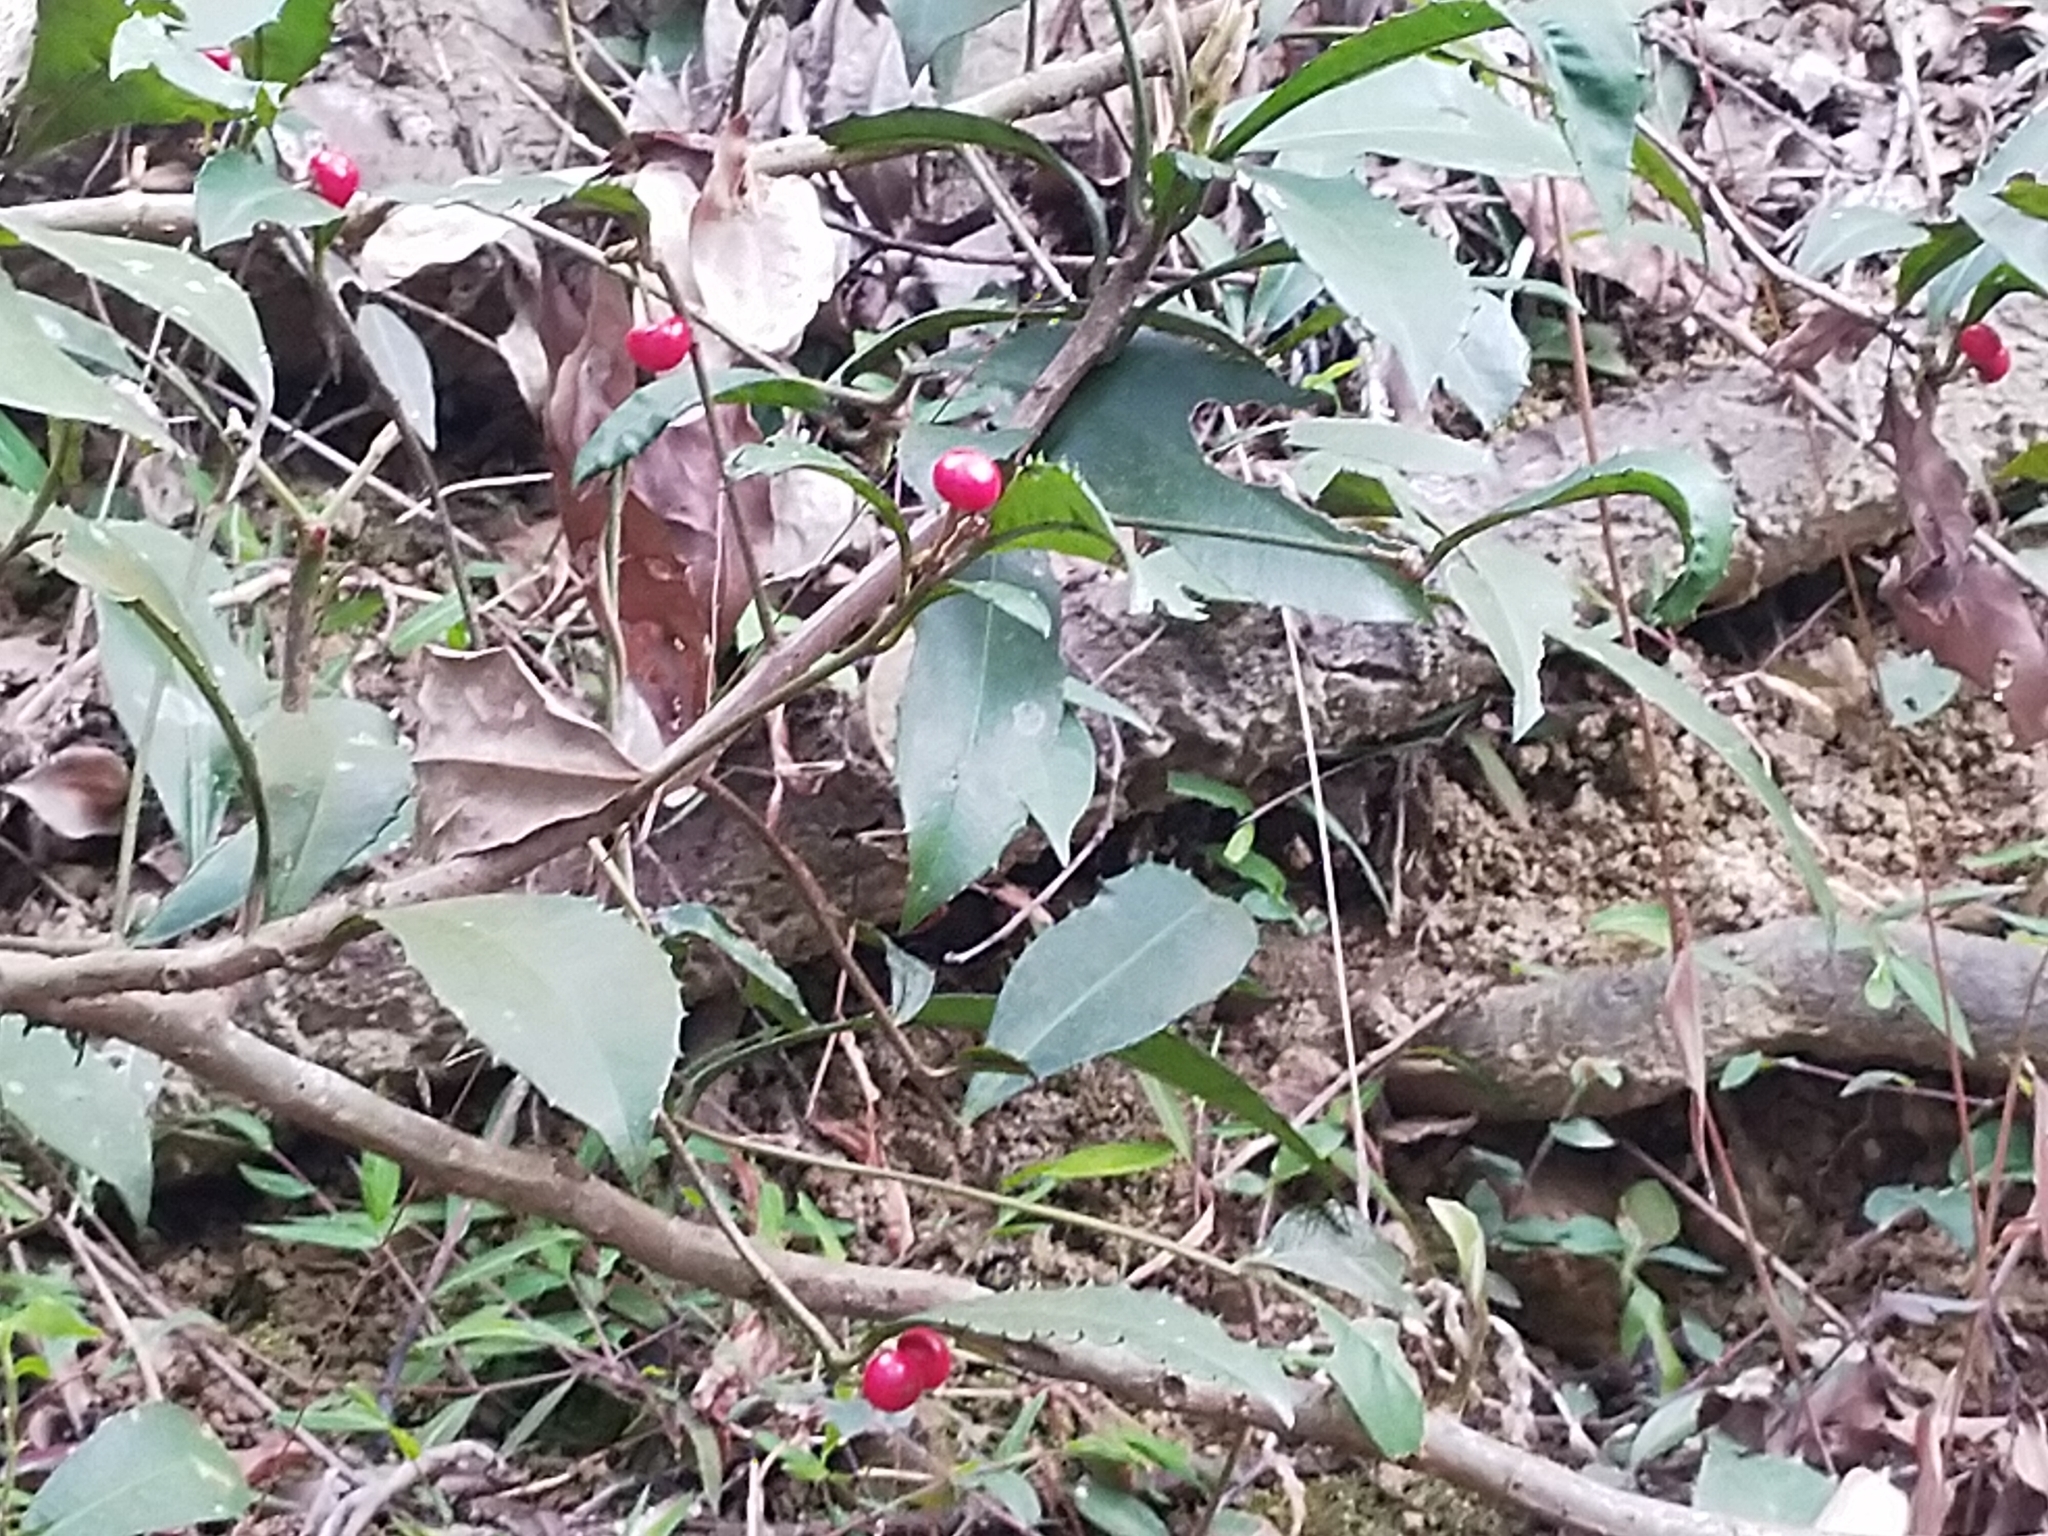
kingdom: Plantae
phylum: Tracheophyta
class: Magnoliopsida
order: Ericales
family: Primulaceae
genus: Ardisia
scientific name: Ardisia cornudentata
